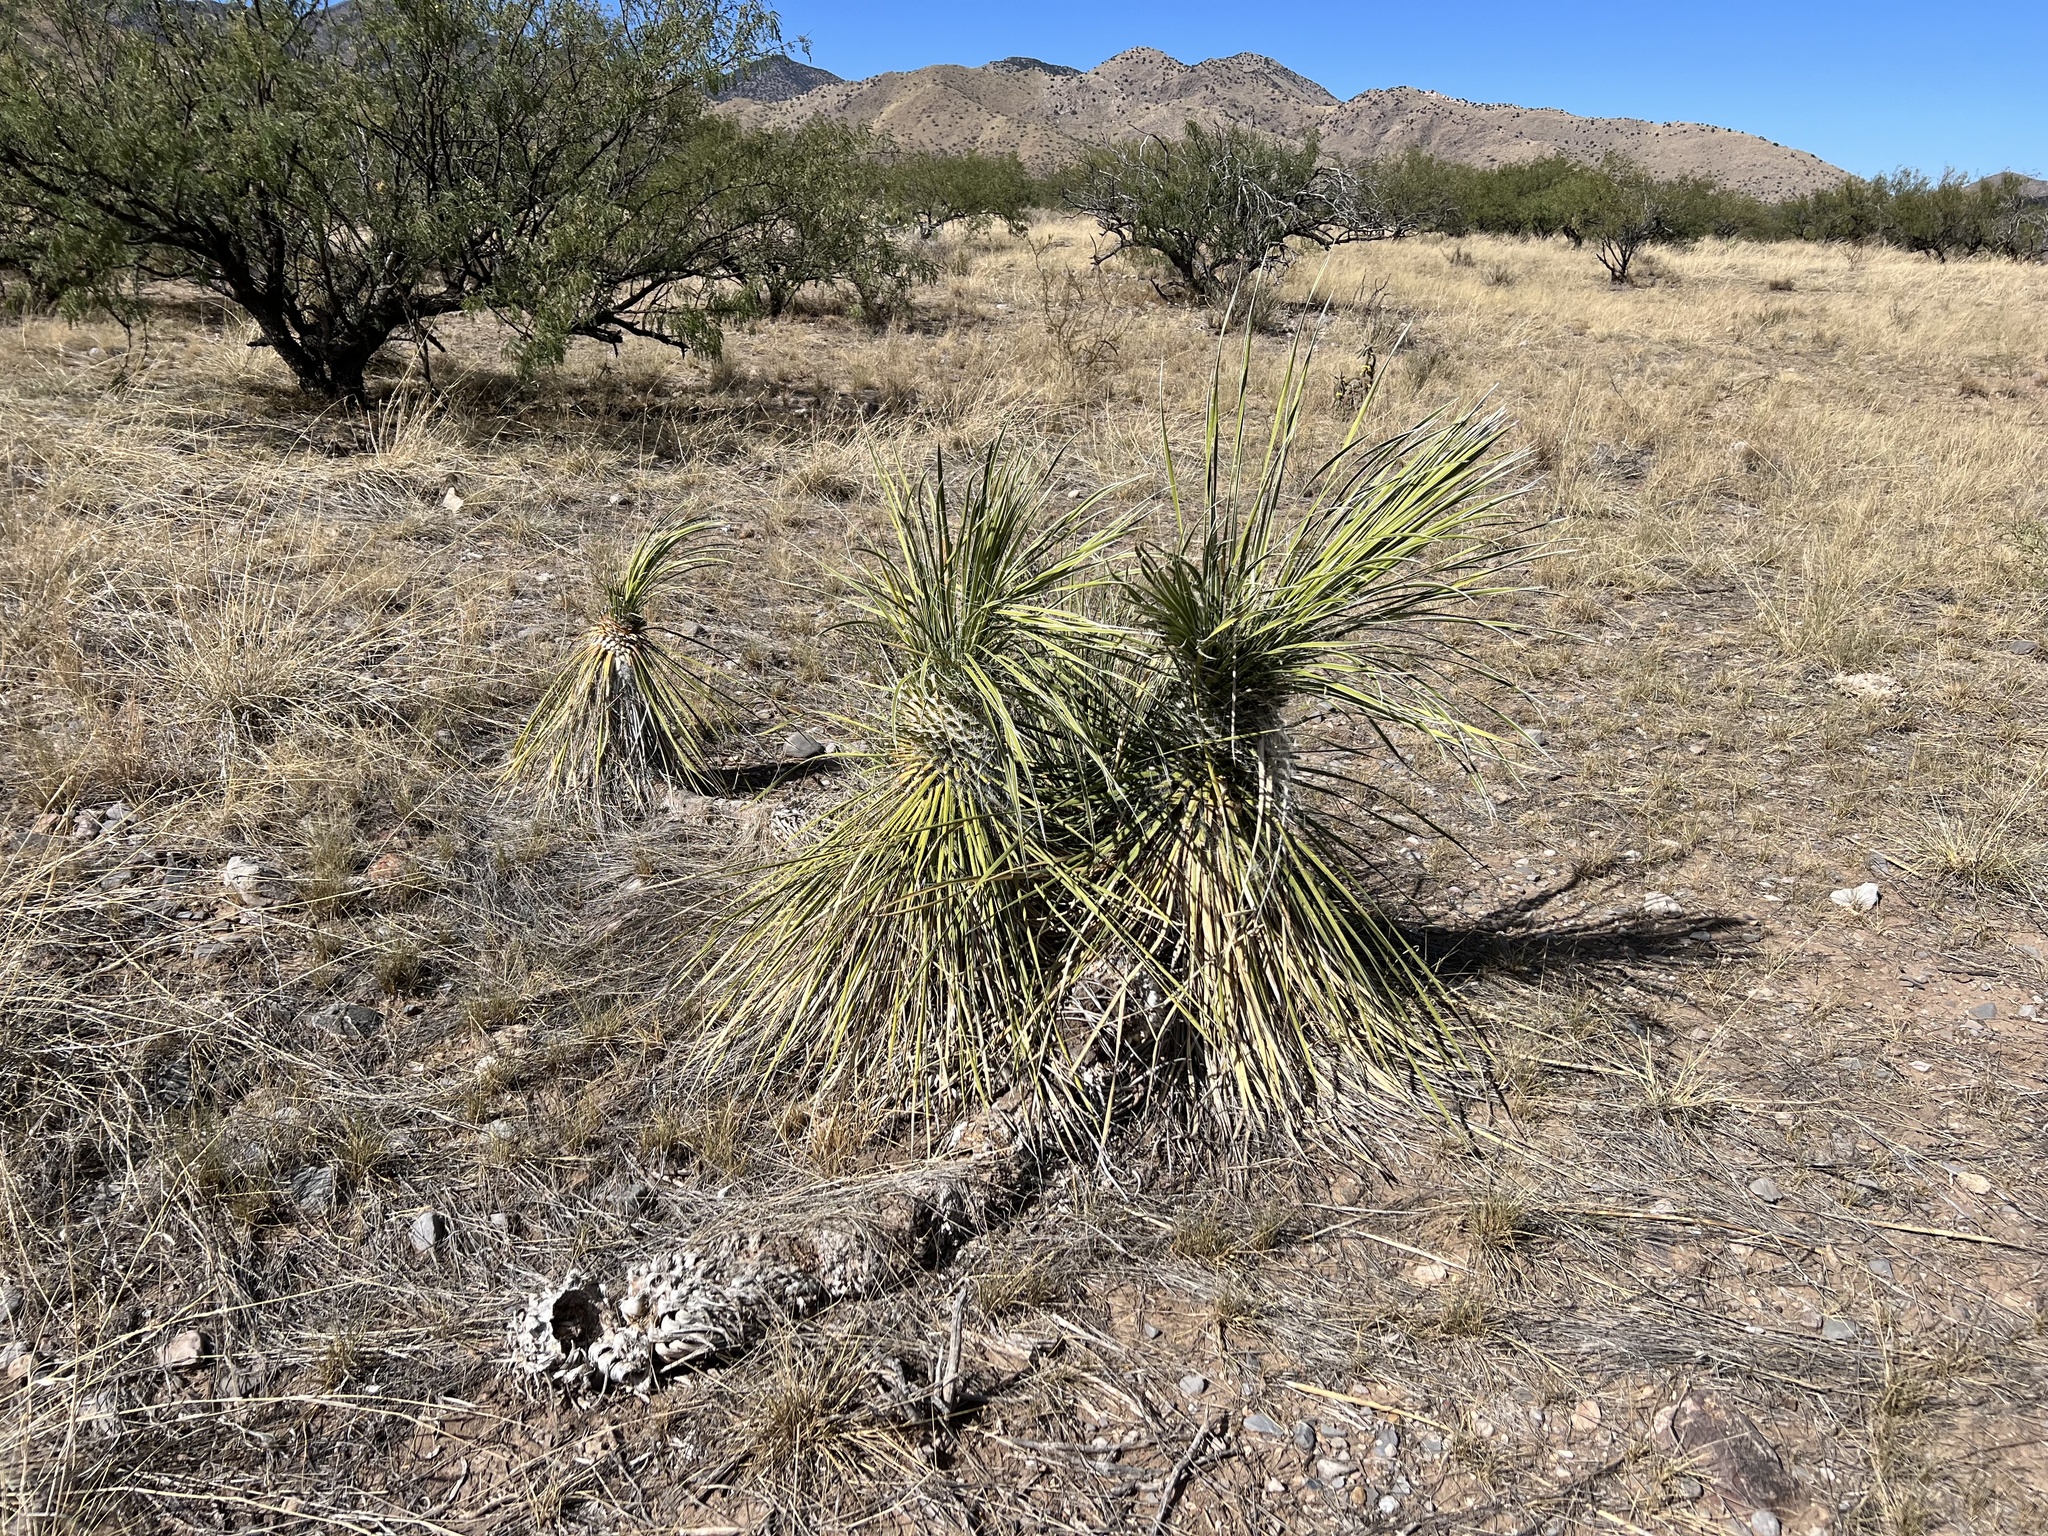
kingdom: Plantae
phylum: Tracheophyta
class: Liliopsida
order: Asparagales
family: Asparagaceae
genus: Yucca
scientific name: Yucca elata
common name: Palmella
